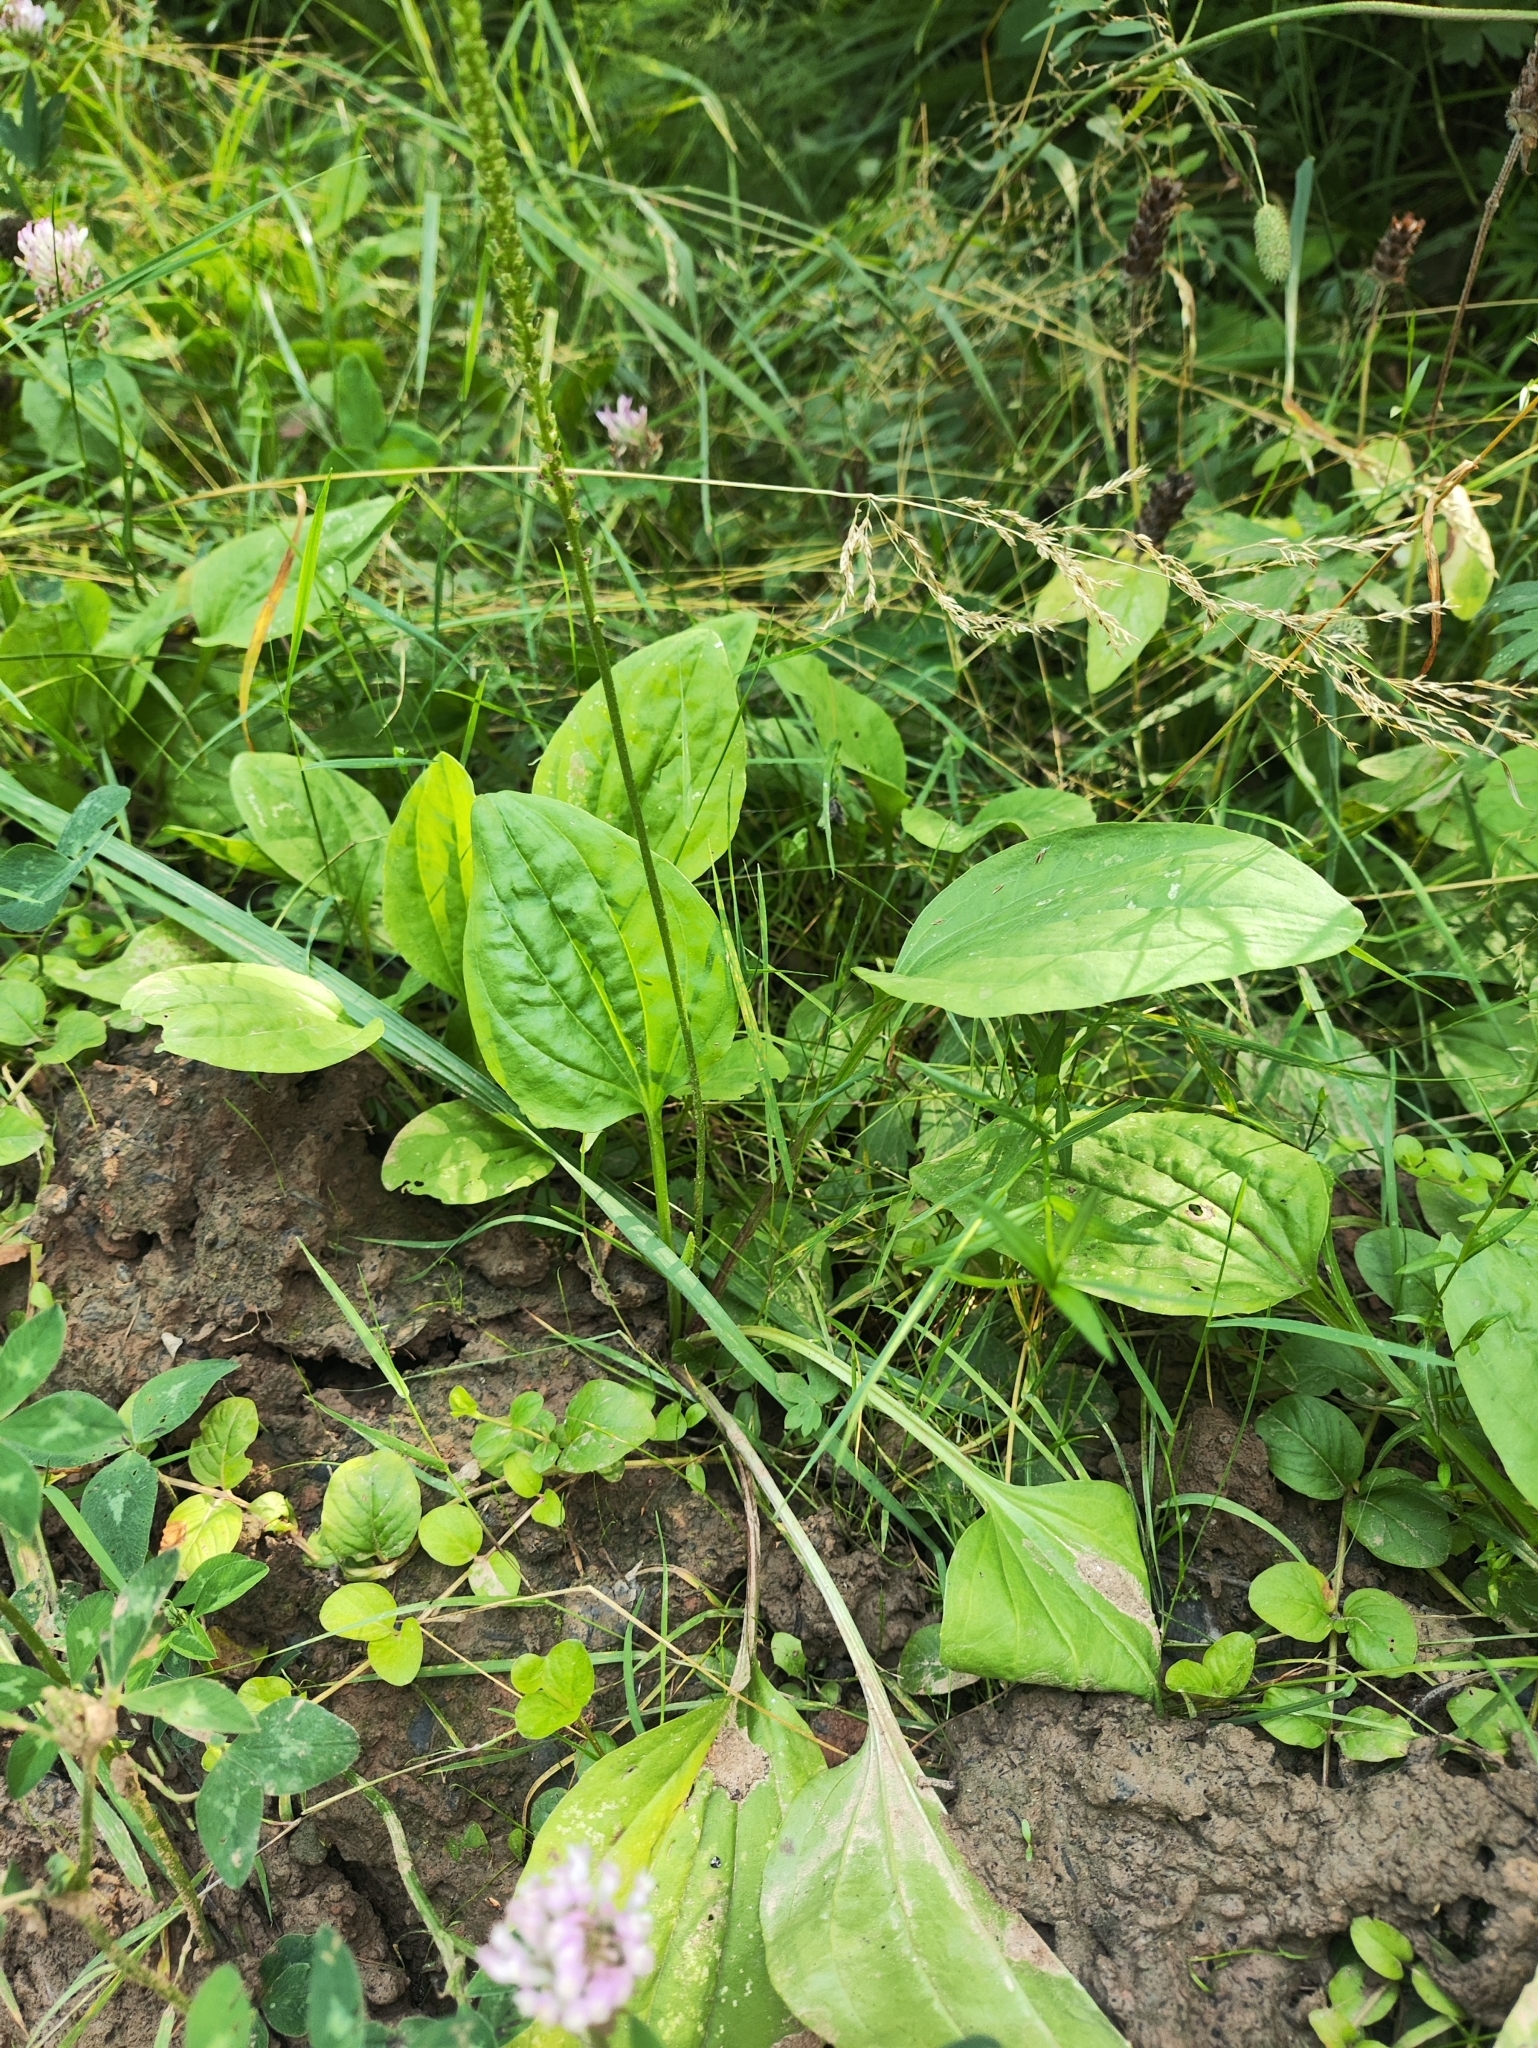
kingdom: Plantae
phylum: Tracheophyta
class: Magnoliopsida
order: Lamiales
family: Plantaginaceae
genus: Plantago
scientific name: Plantago major
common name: Common plantain
